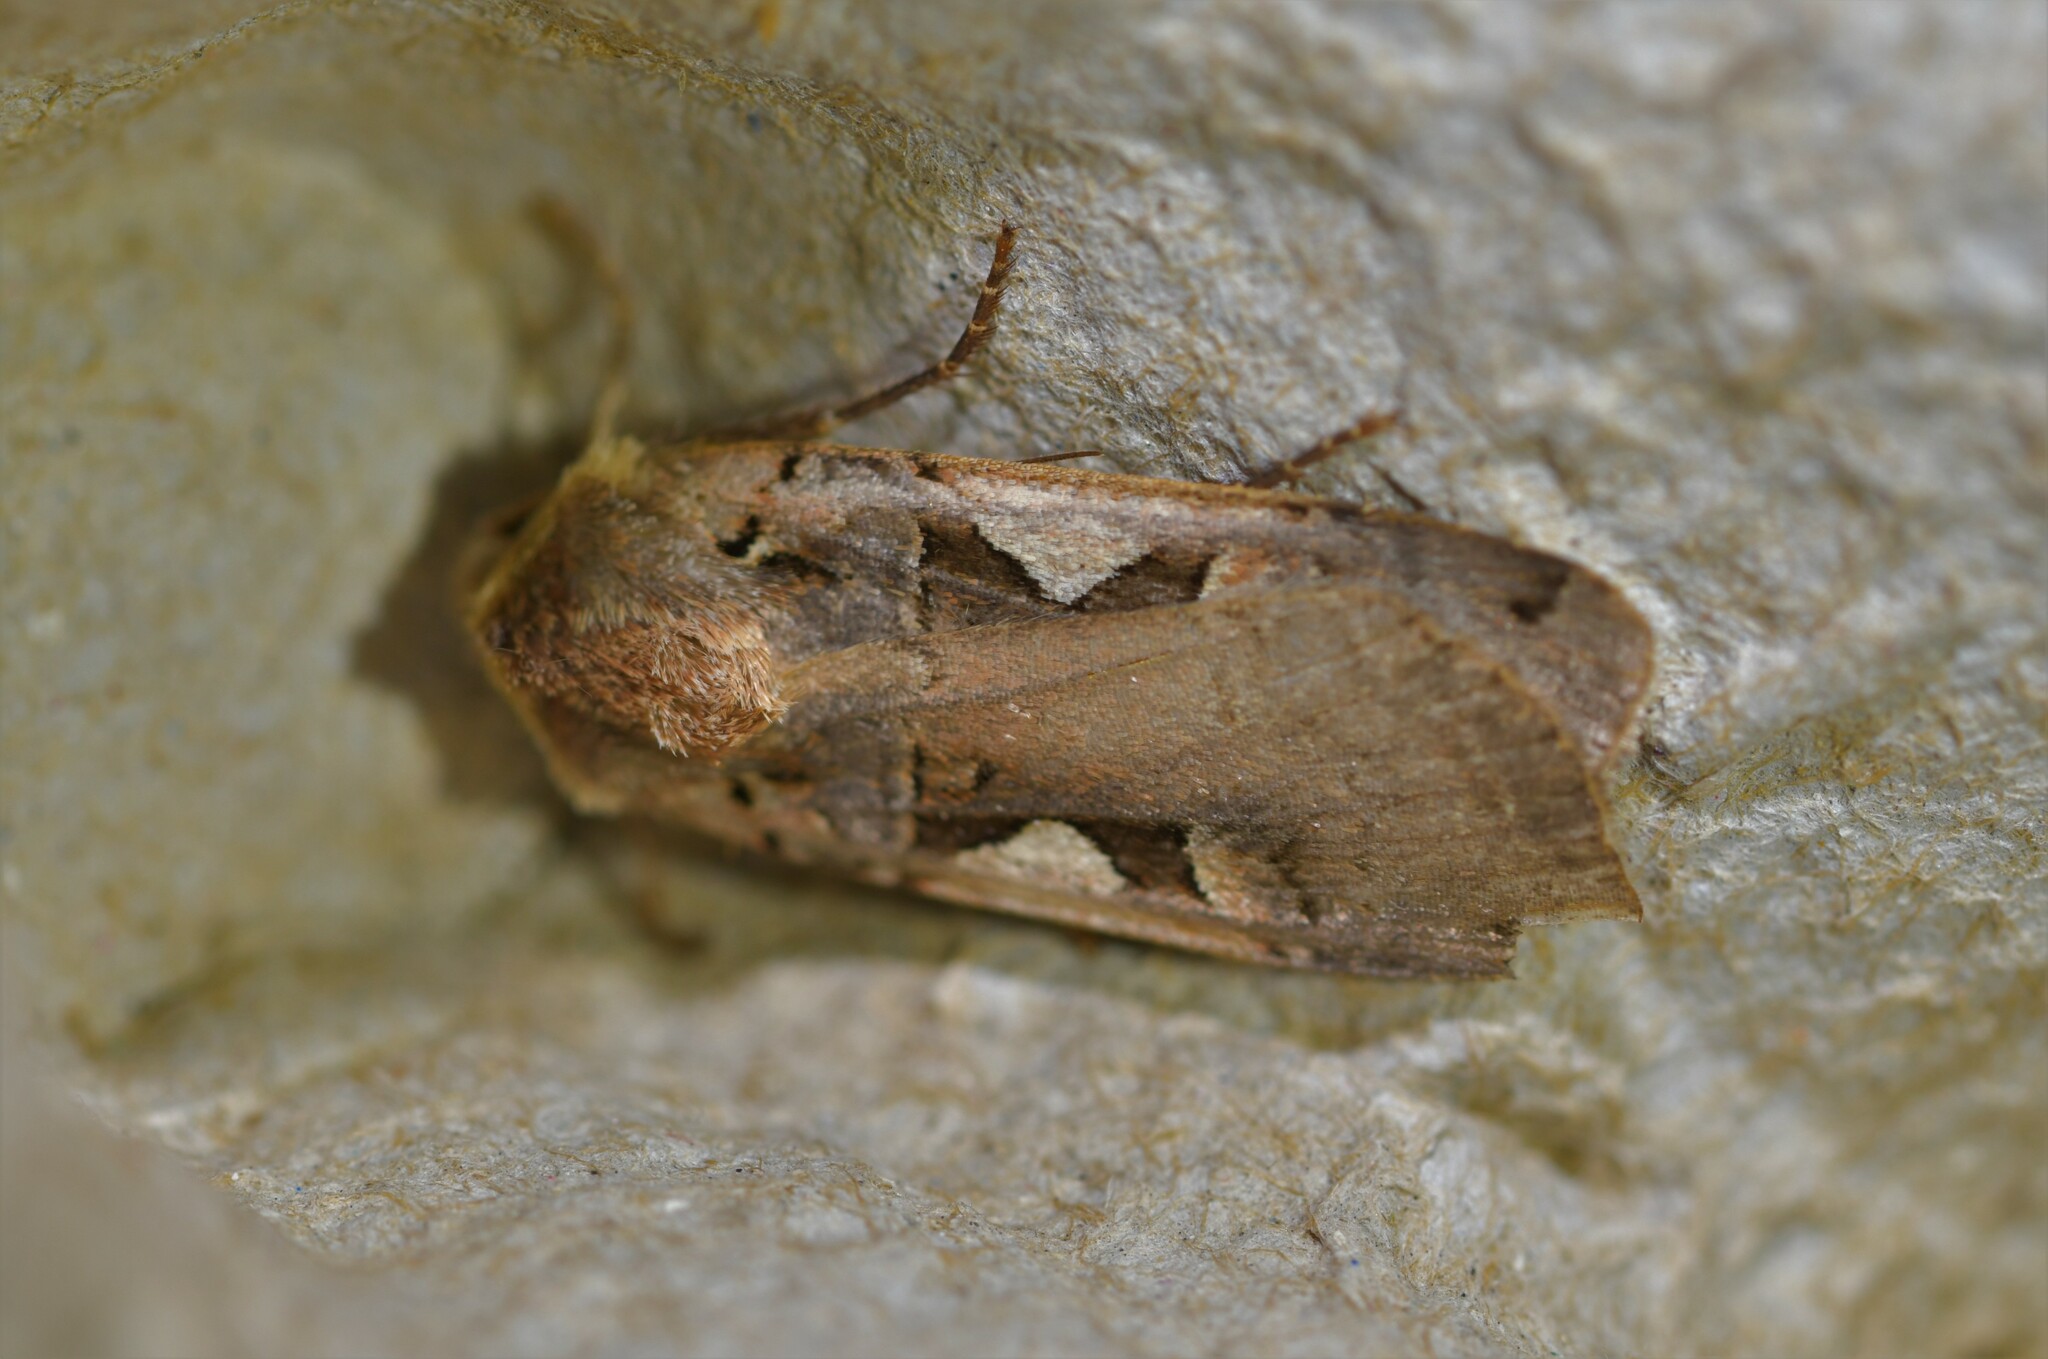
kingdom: Animalia
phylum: Arthropoda
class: Insecta
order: Lepidoptera
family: Noctuidae
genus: Xestia
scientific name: Xestia c-nigrum
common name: Setaceous hebrew character
